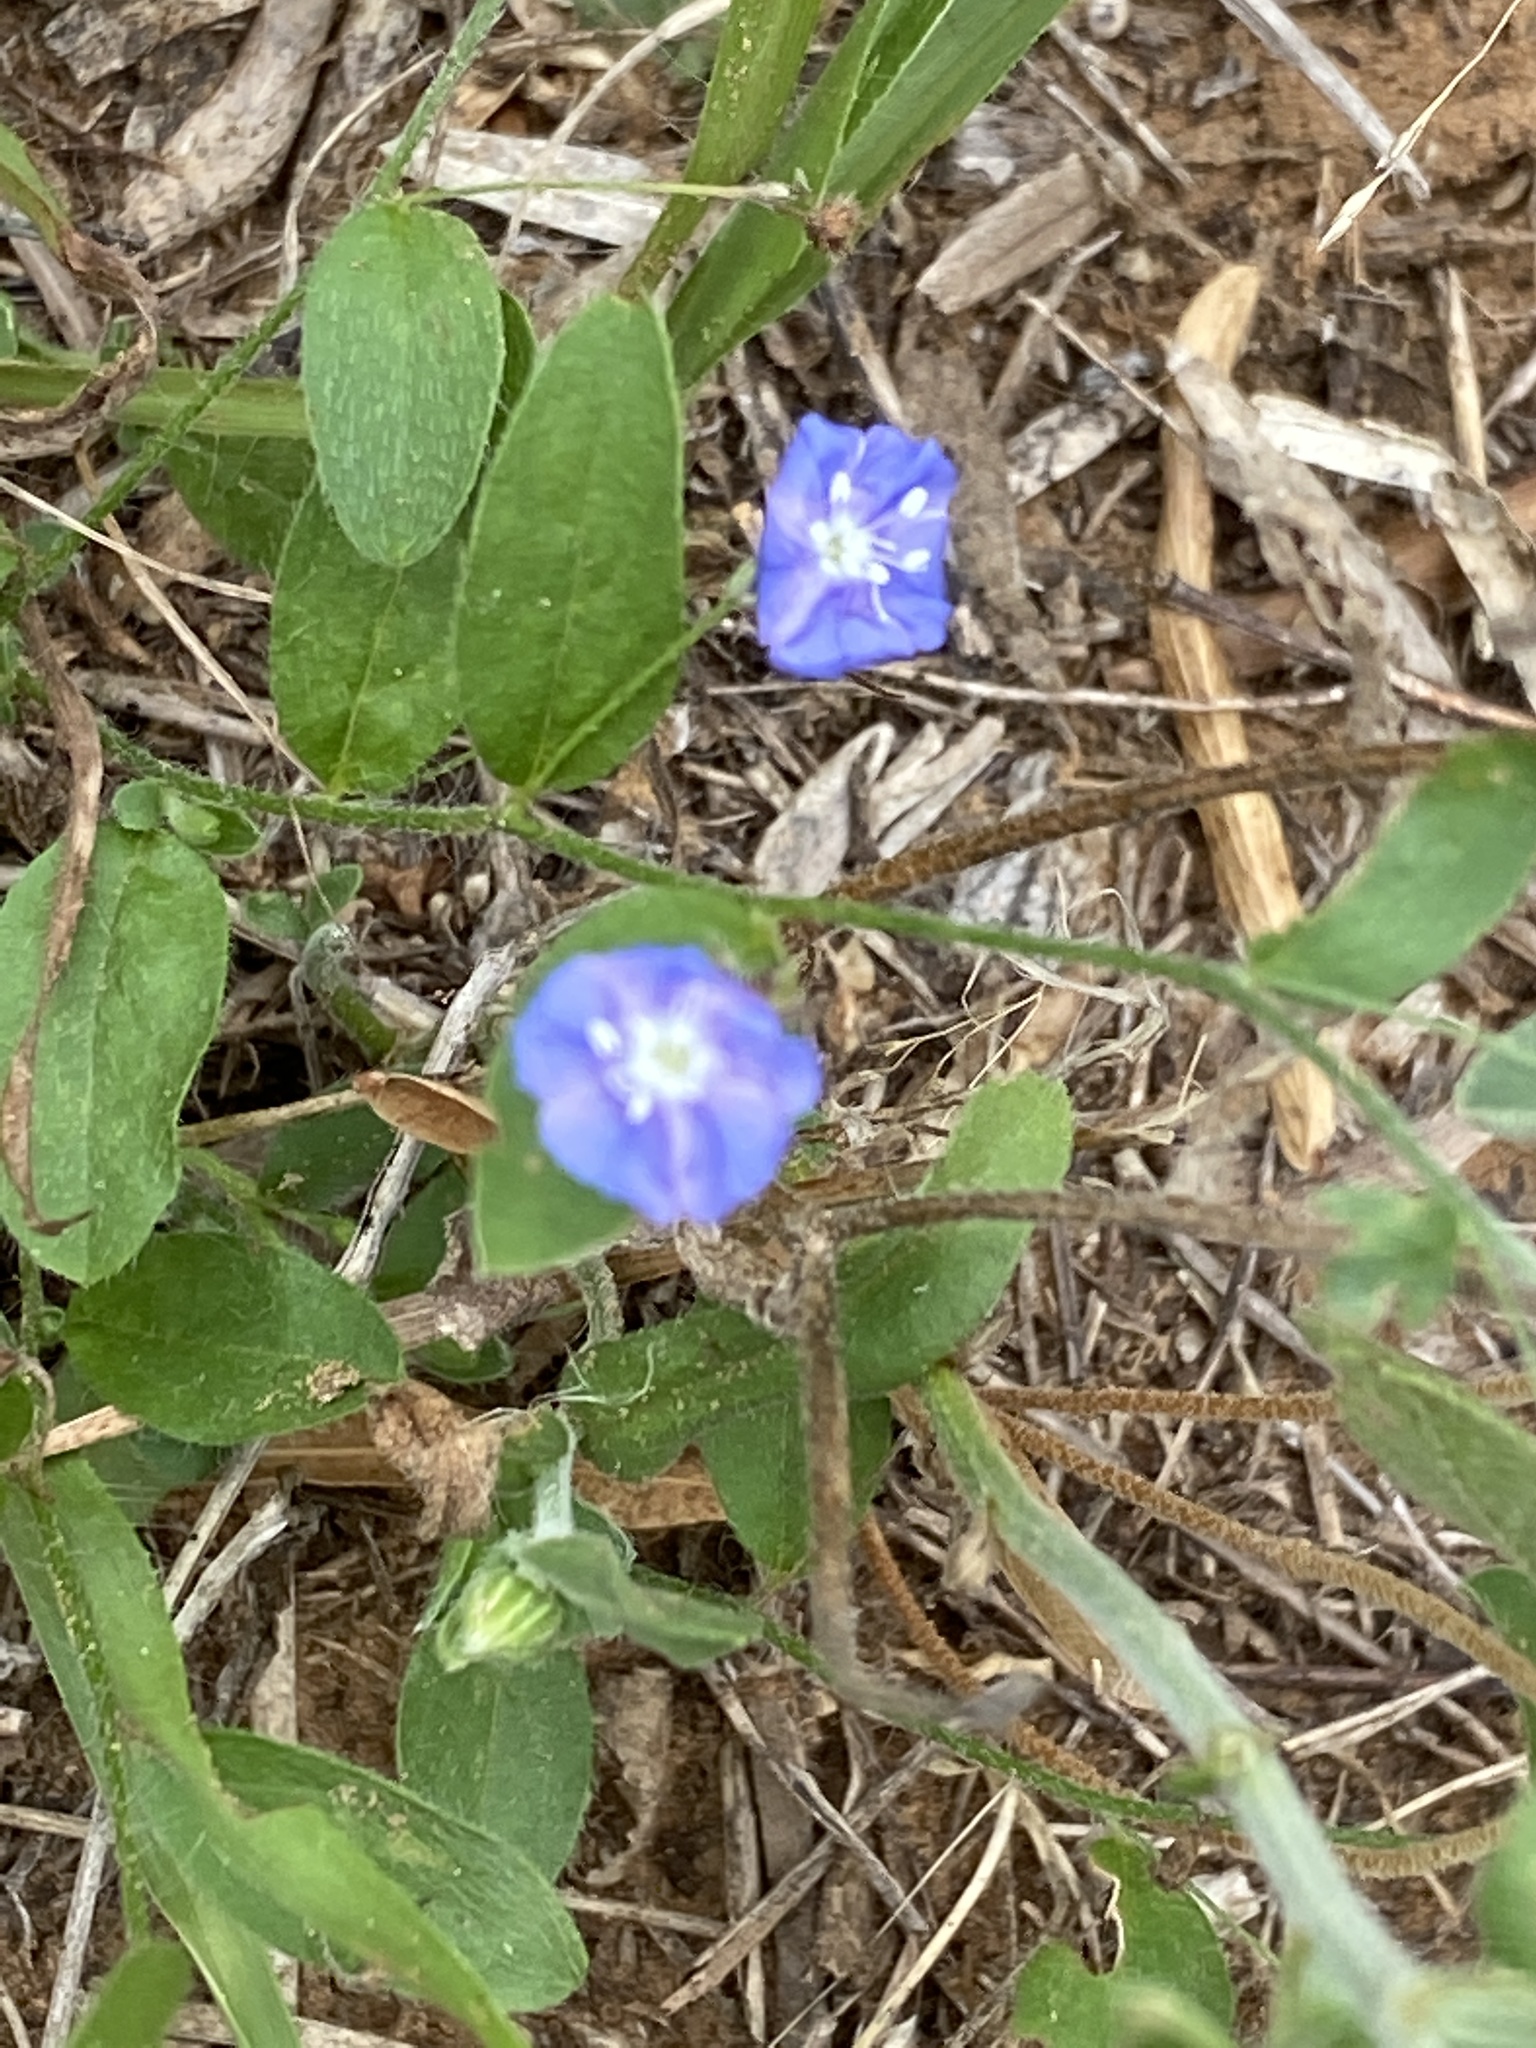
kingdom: Plantae
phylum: Tracheophyta
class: Magnoliopsida
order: Solanales
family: Convolvulaceae
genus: Evolvulus
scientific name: Evolvulus alsinoides
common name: Slender dwarf morning-glory
